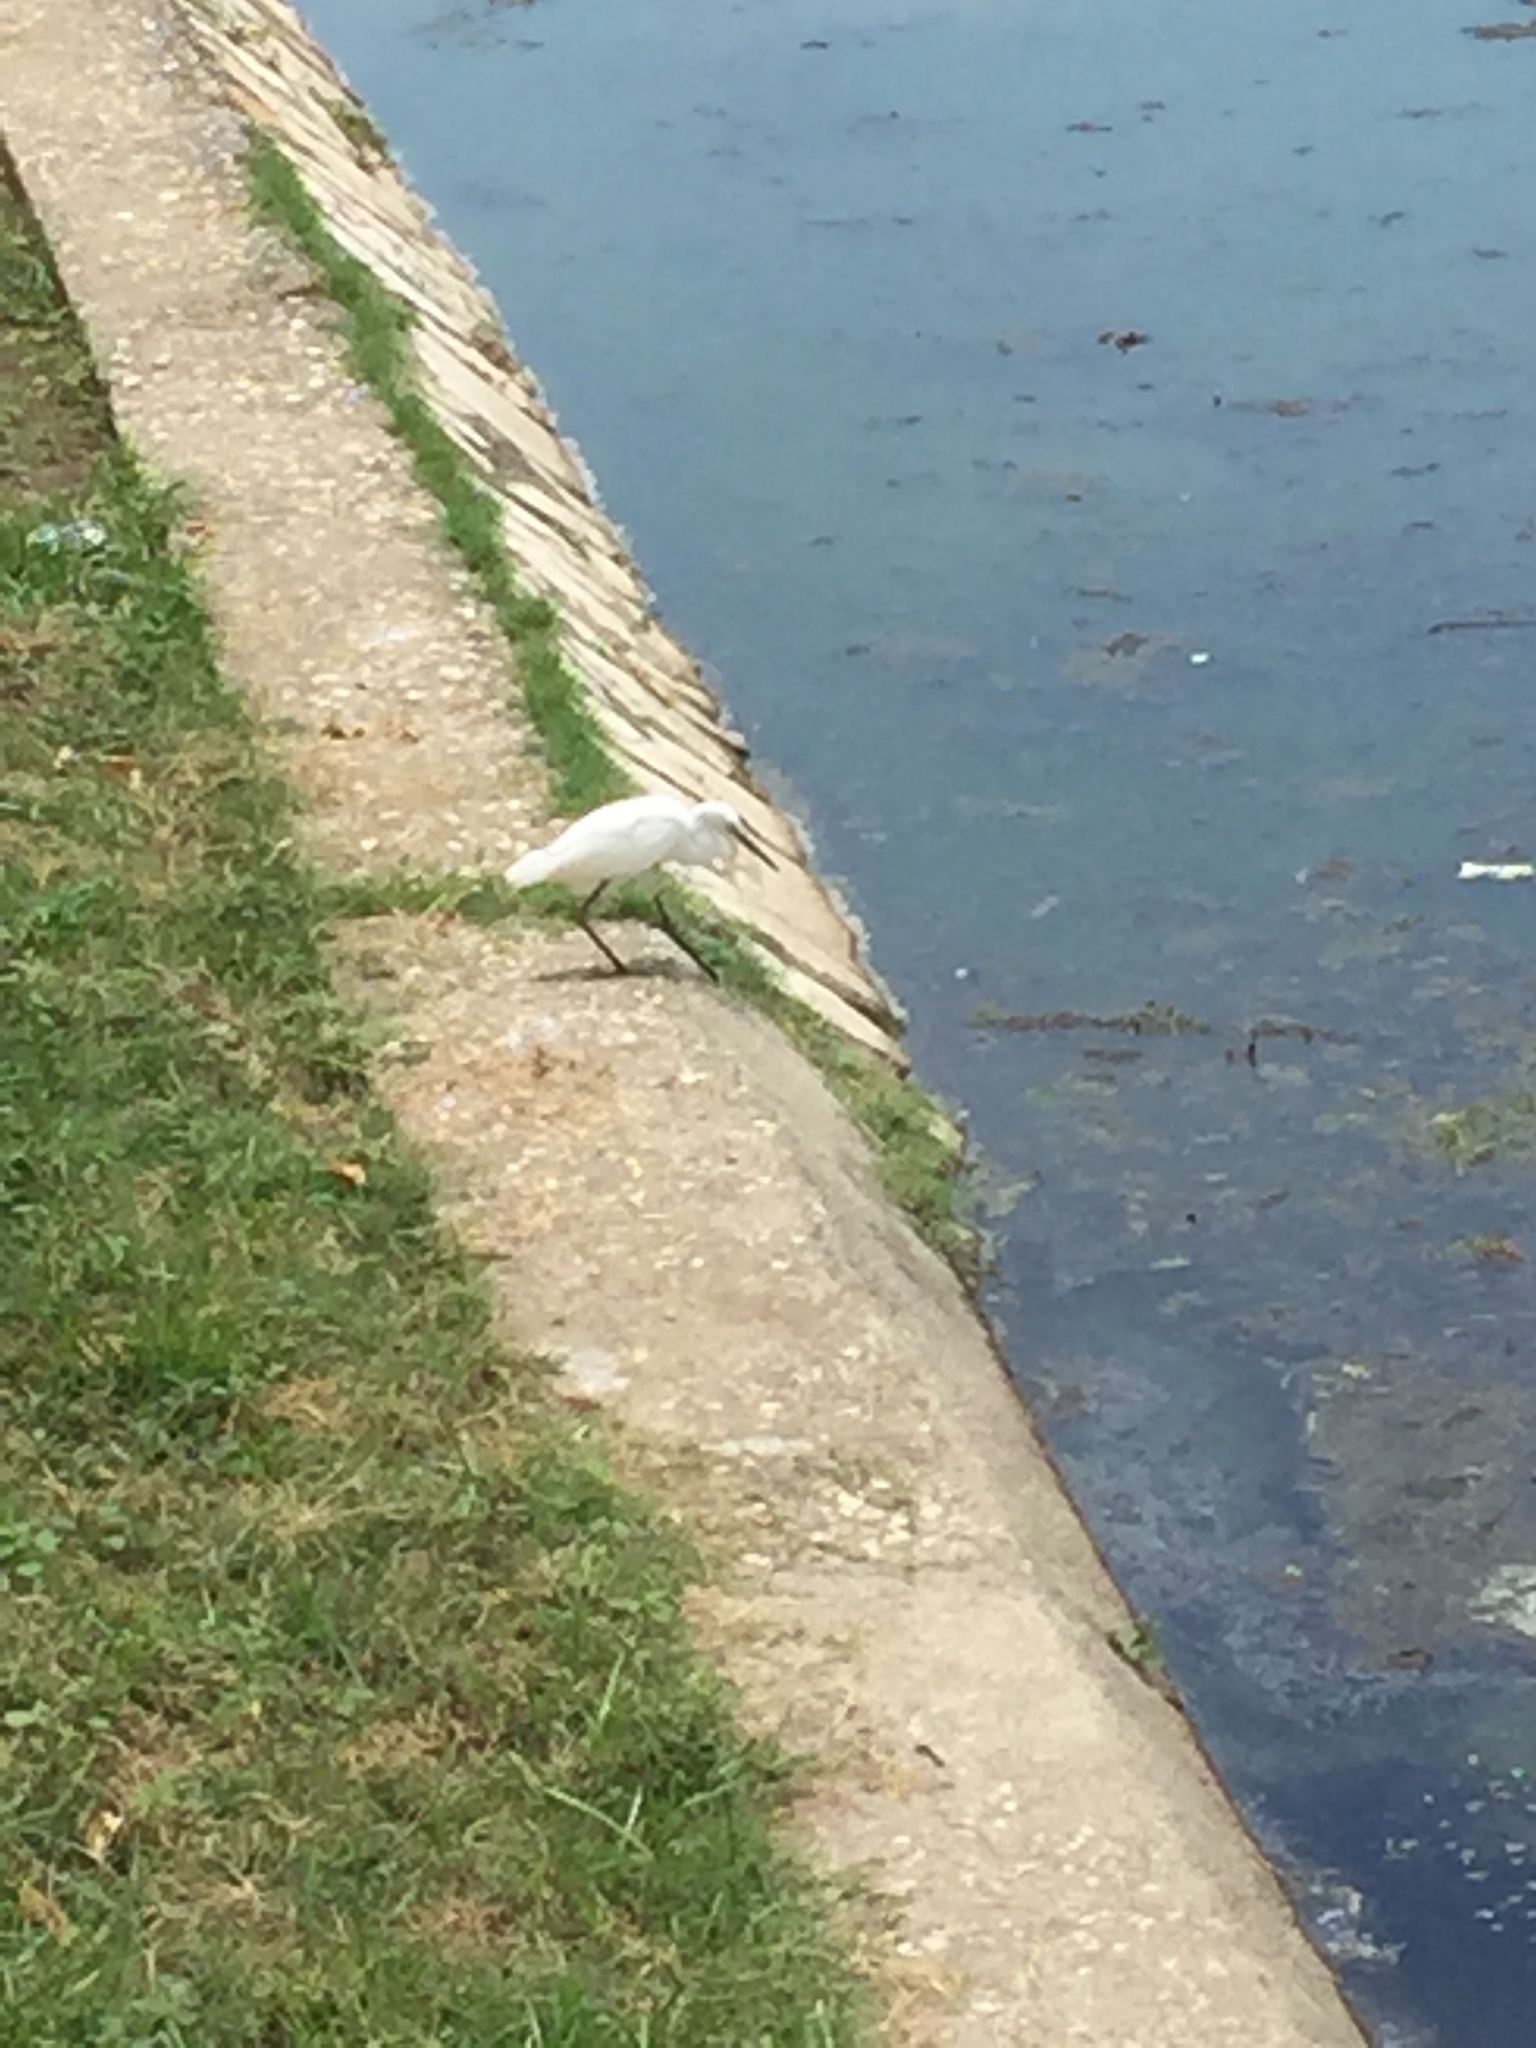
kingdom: Animalia
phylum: Chordata
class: Aves
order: Pelecaniformes
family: Ardeidae
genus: Egretta
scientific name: Egretta thula
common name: Snowy egret
